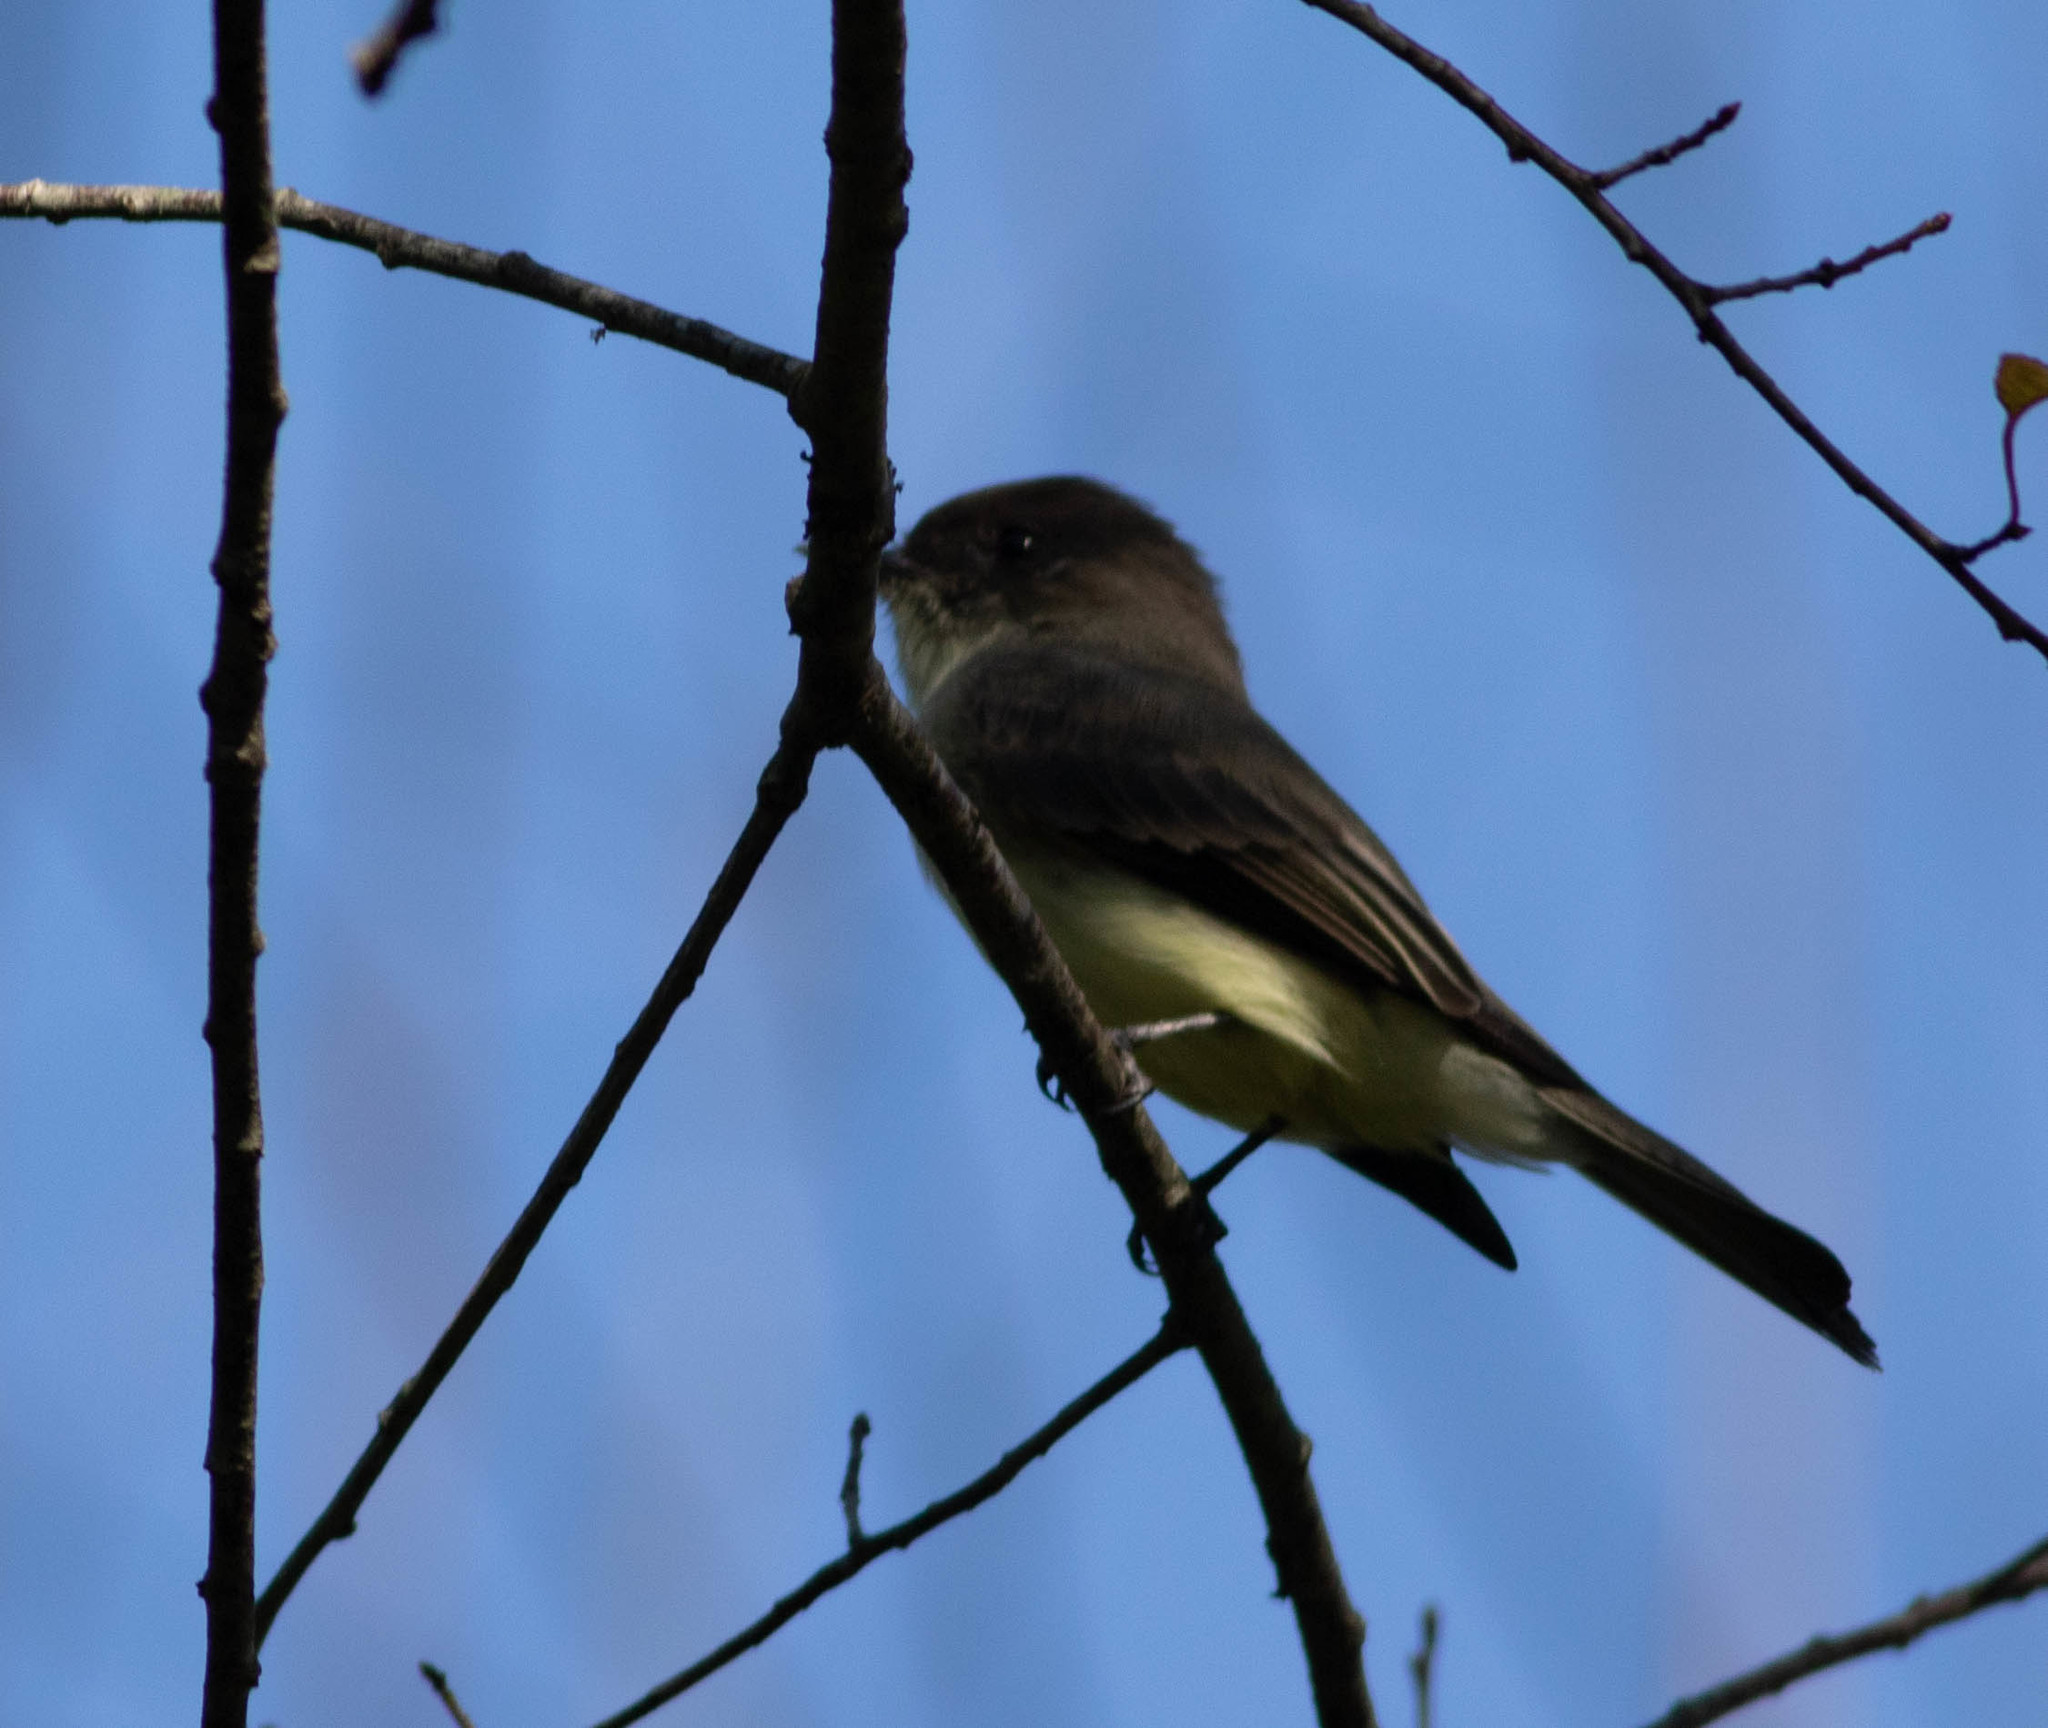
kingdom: Animalia
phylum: Chordata
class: Aves
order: Passeriformes
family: Tyrannidae
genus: Sayornis
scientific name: Sayornis phoebe
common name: Eastern phoebe
